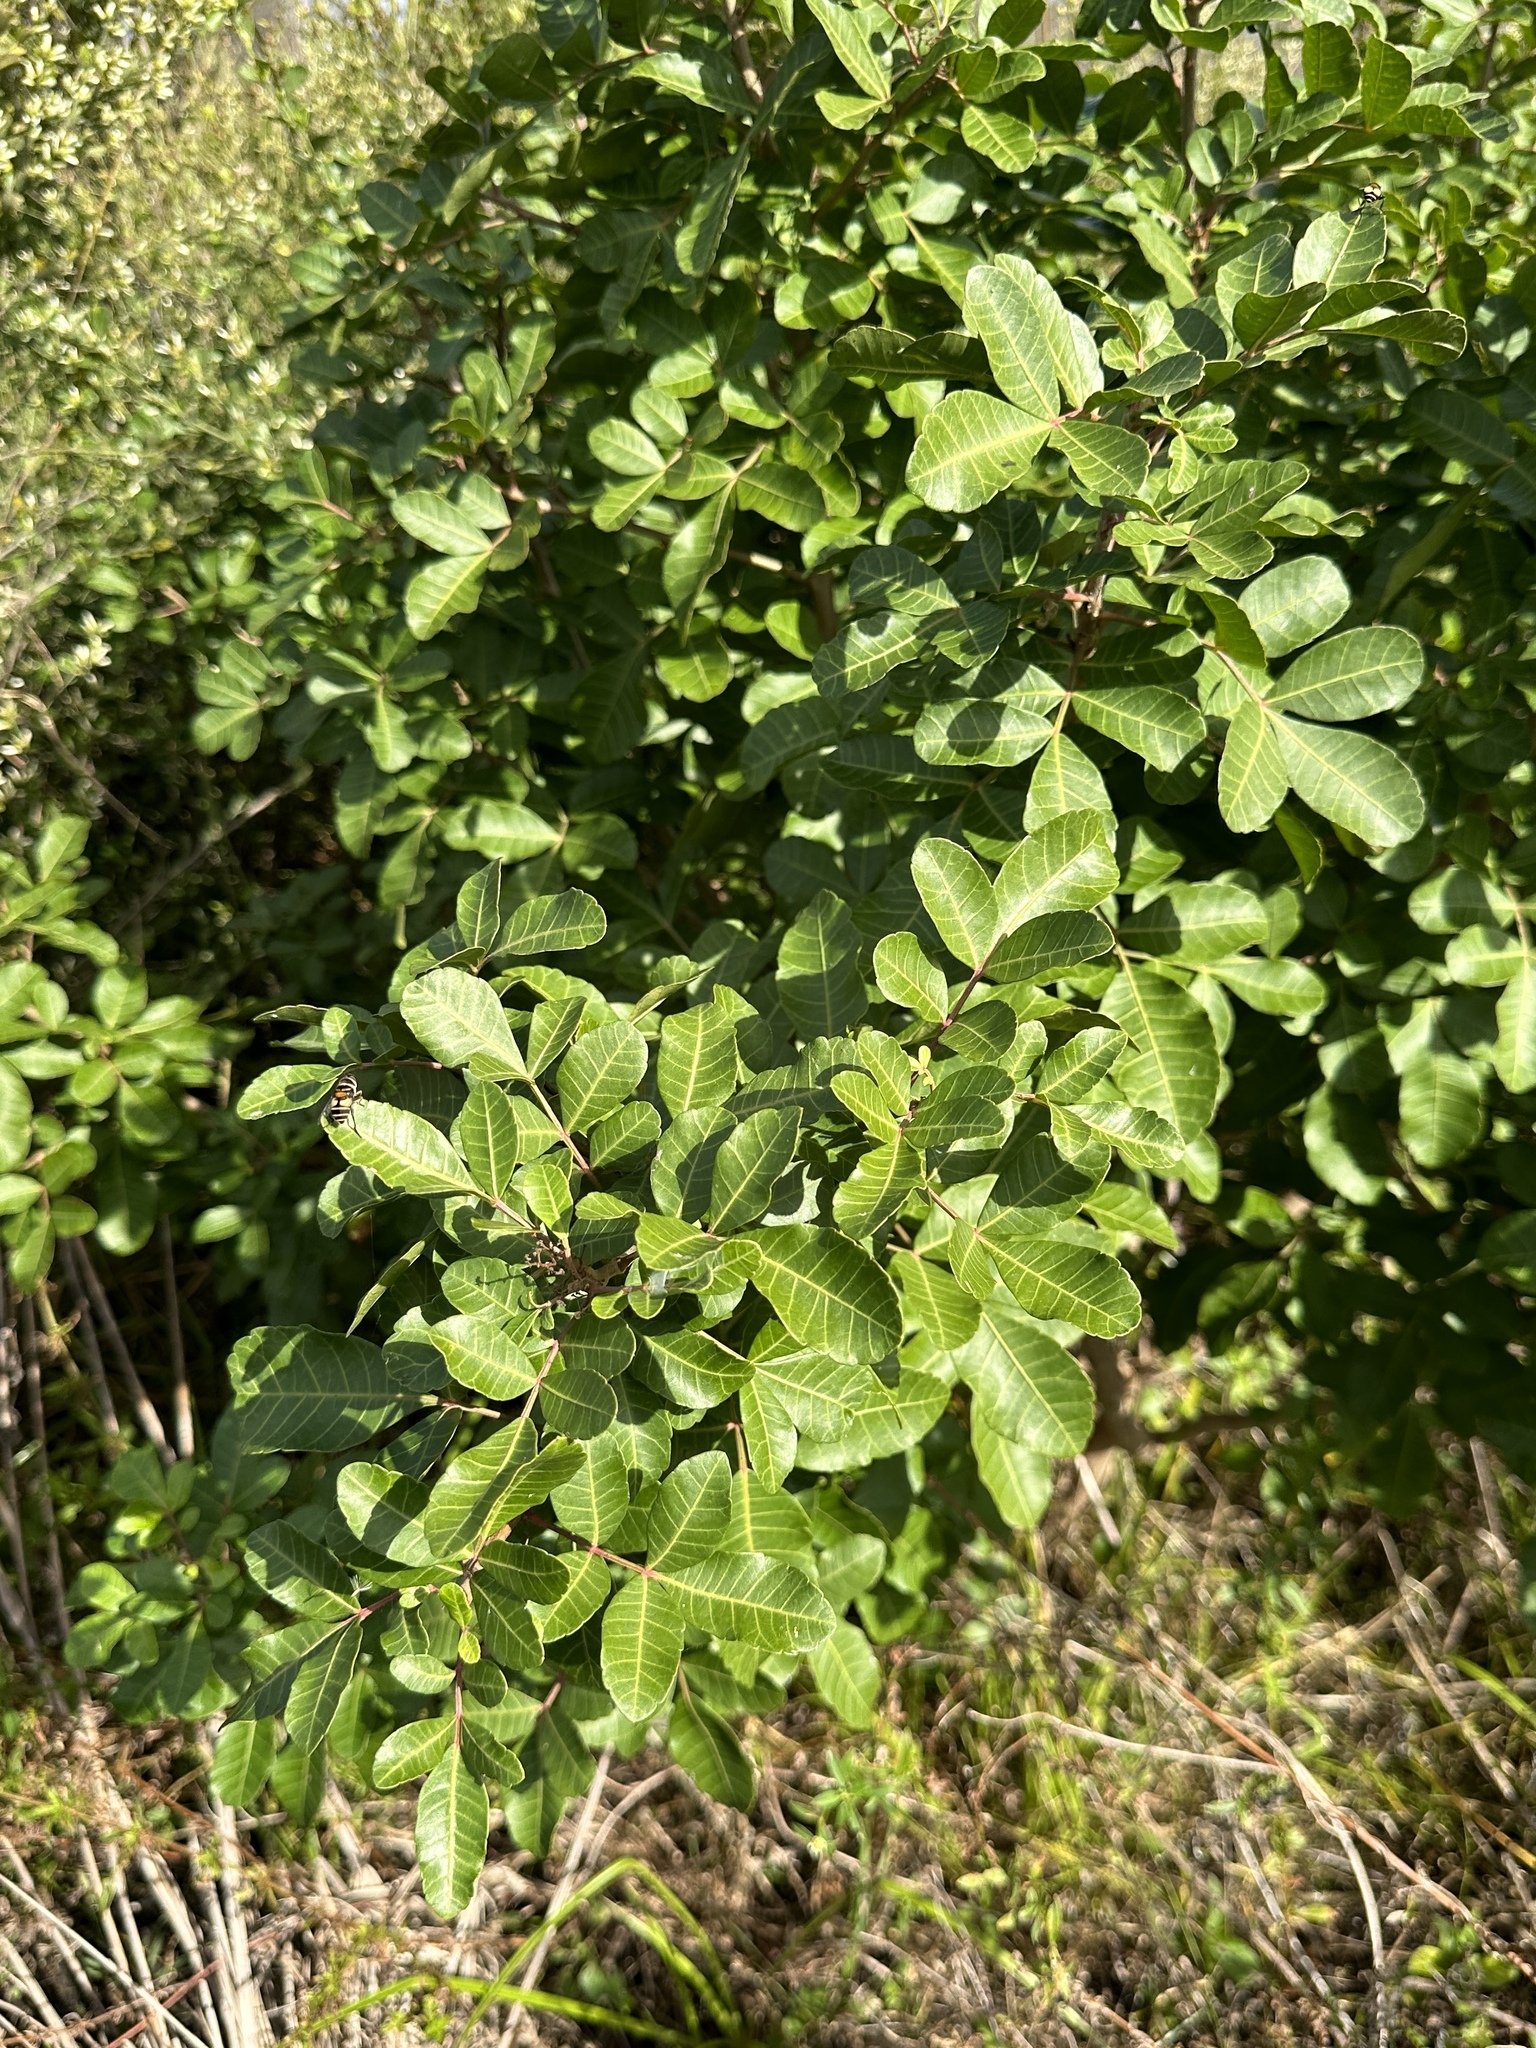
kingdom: Plantae
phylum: Tracheophyta
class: Magnoliopsida
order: Sapindales
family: Anacardiaceae
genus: Schinus
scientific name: Schinus terebinthifolia
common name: Brazilian peppertree
